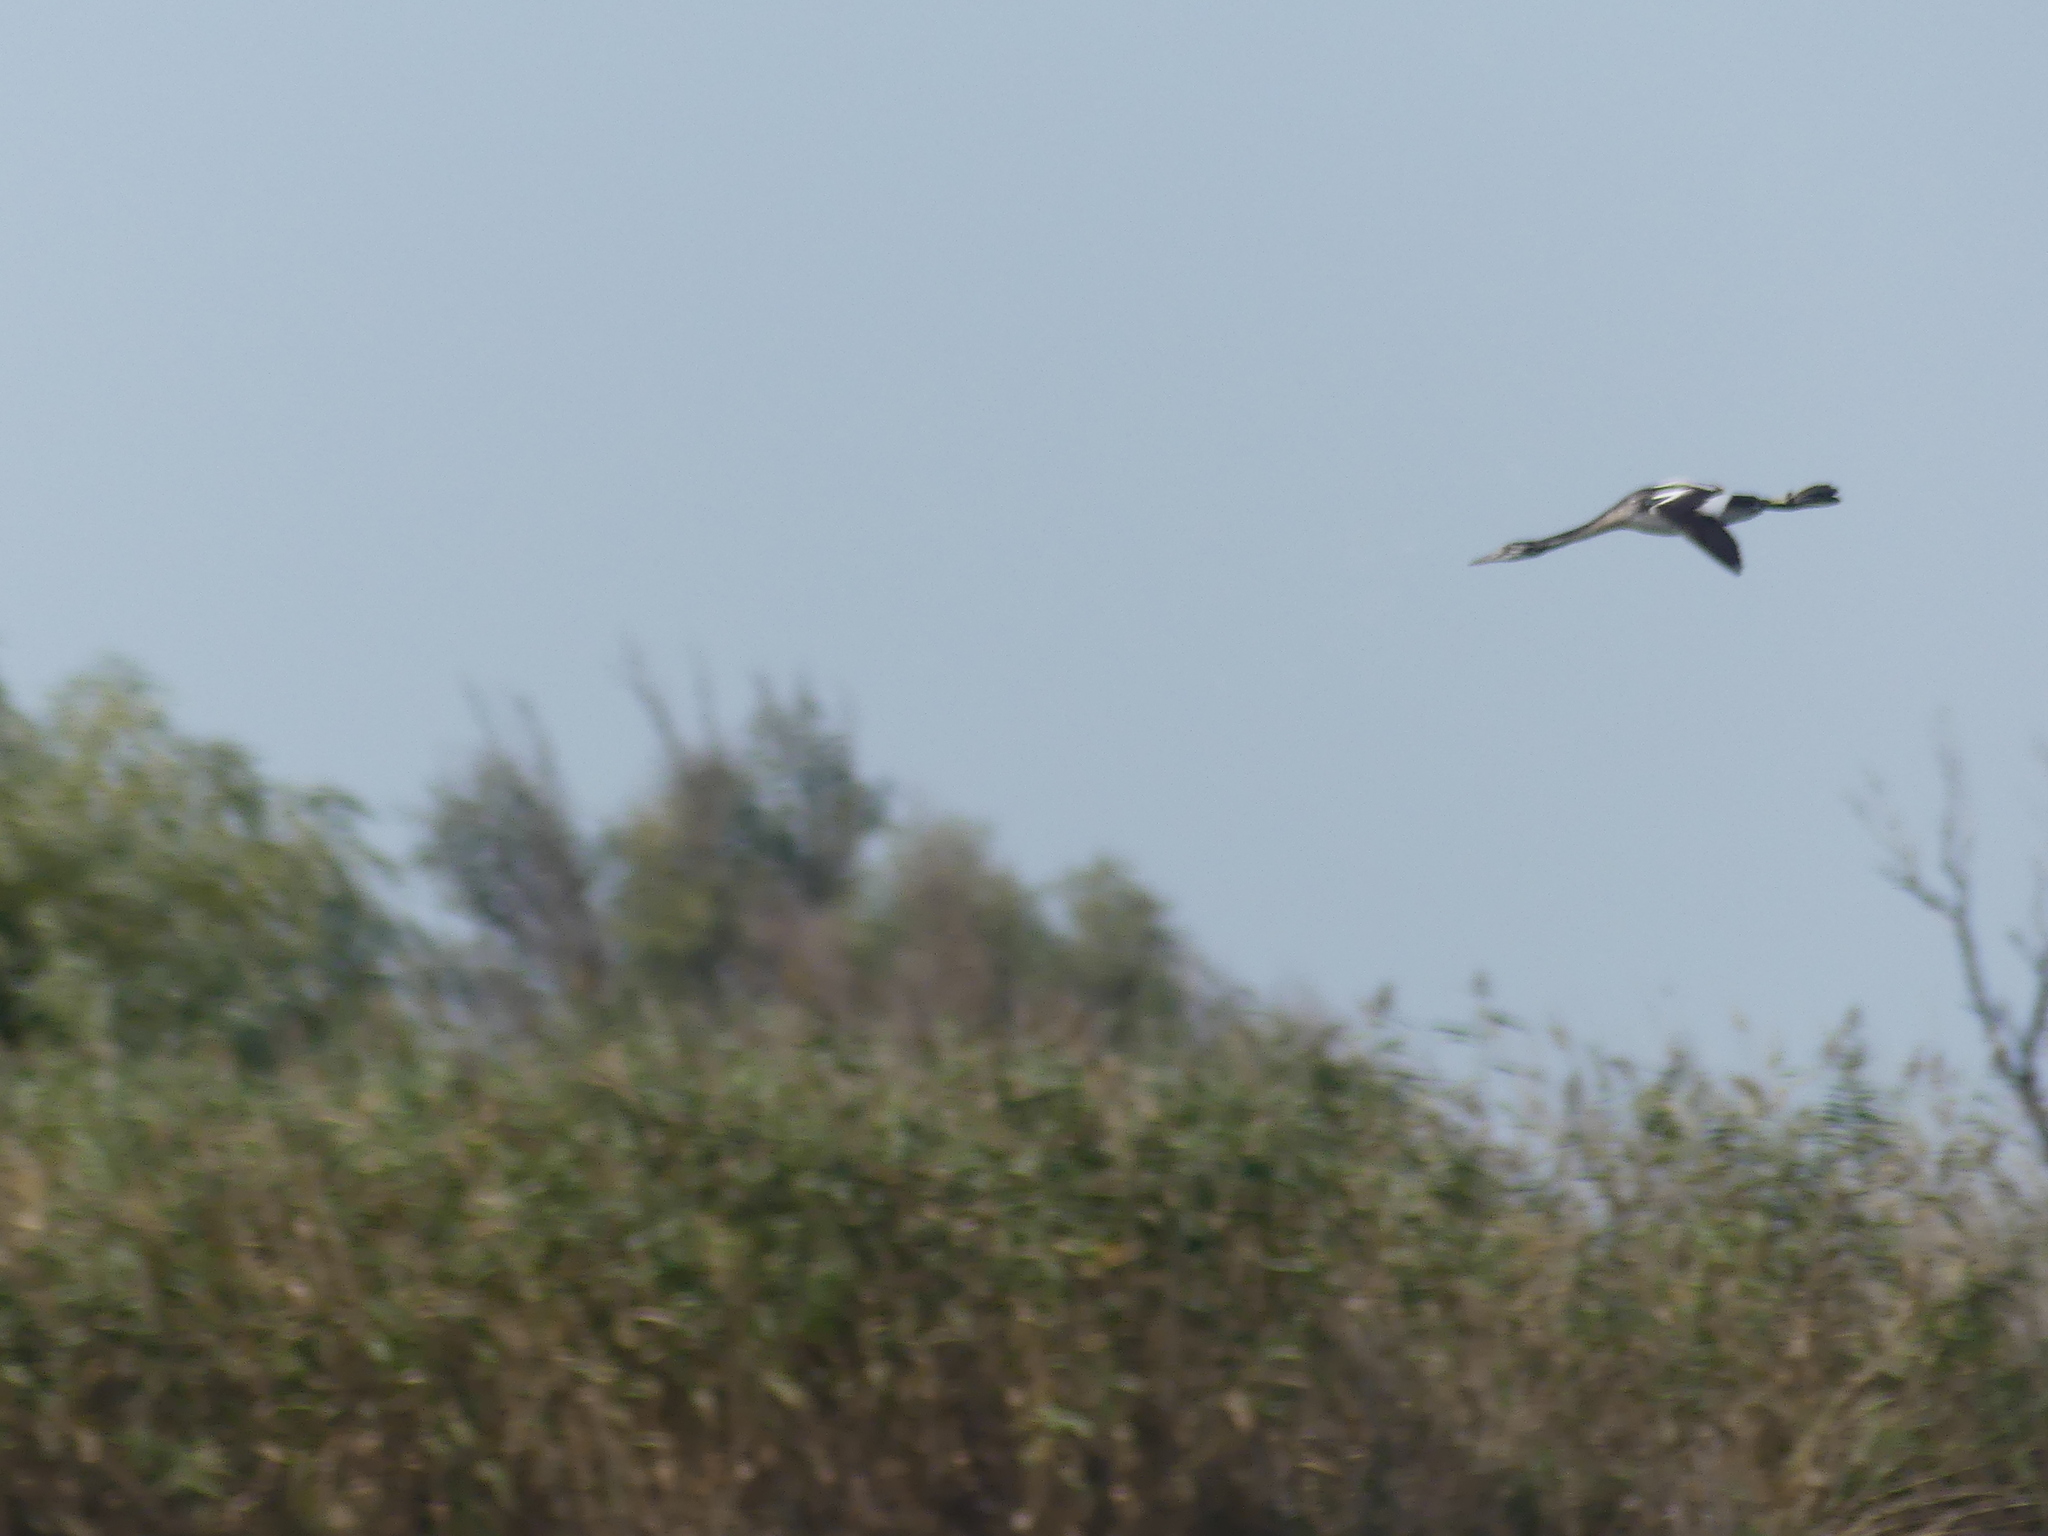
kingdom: Animalia
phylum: Chordata
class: Aves
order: Podicipediformes
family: Podicipedidae
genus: Podiceps
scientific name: Podiceps cristatus
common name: Great crested grebe
